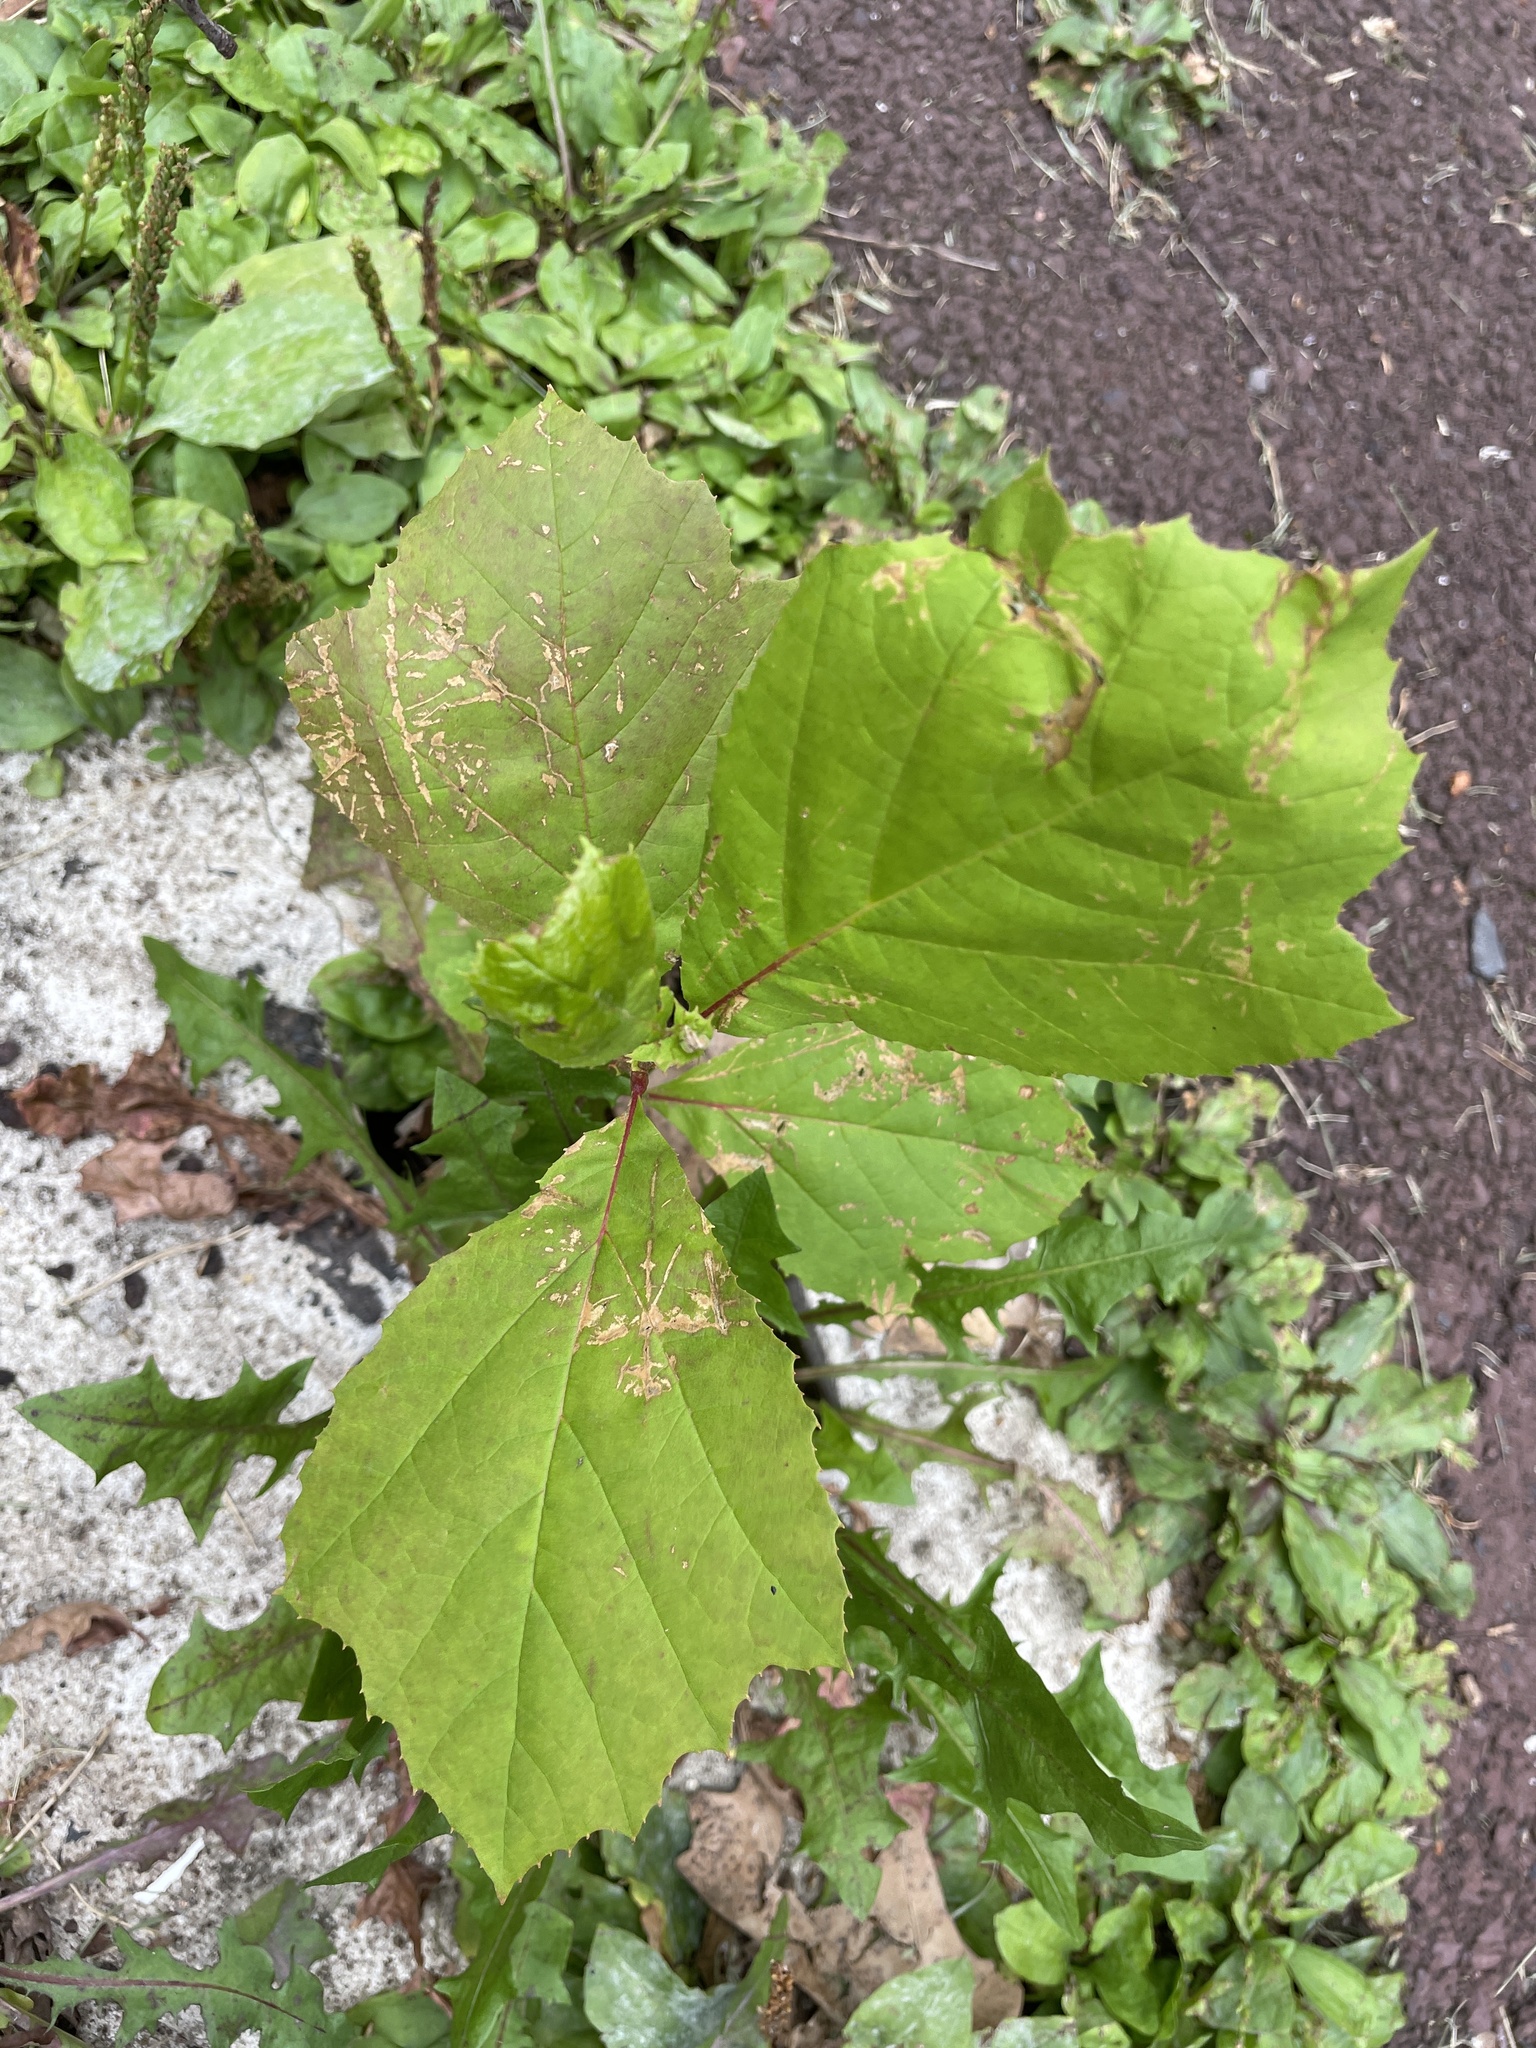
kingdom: Plantae
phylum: Tracheophyta
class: Magnoliopsida
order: Proteales
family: Platanaceae
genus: Platanus
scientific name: Platanus occidentalis
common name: American sycamore
